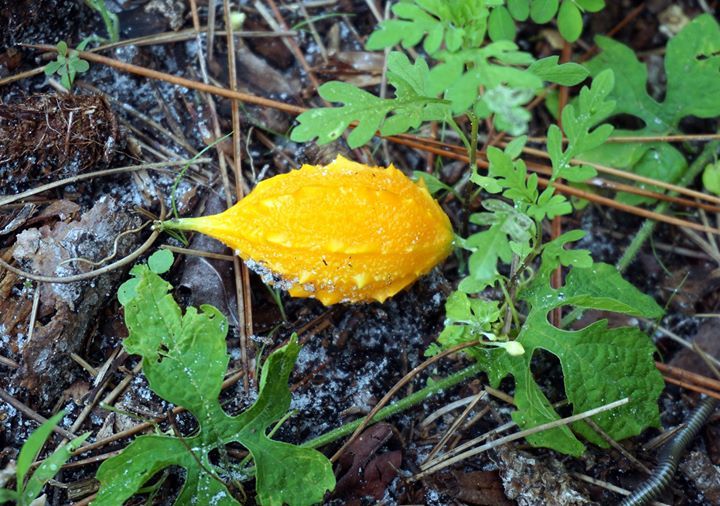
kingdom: Plantae
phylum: Tracheophyta
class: Magnoliopsida
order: Cucurbitales
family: Cucurbitaceae
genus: Momordica
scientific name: Momordica charantia
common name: Balsampear
